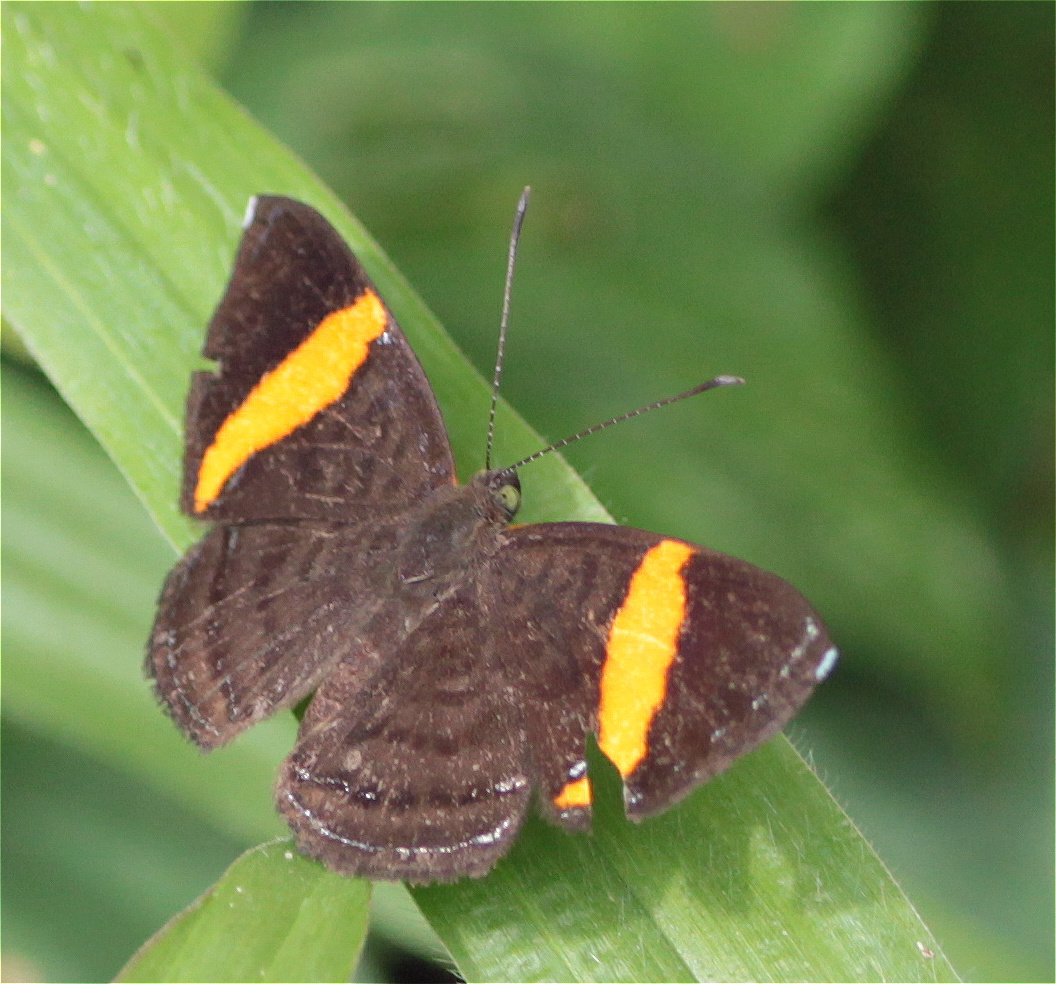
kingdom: Animalia
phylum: Arthropoda
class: Insecta
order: Lepidoptera
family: Riodinidae
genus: Crocozona
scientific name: Crocozona pheretima
